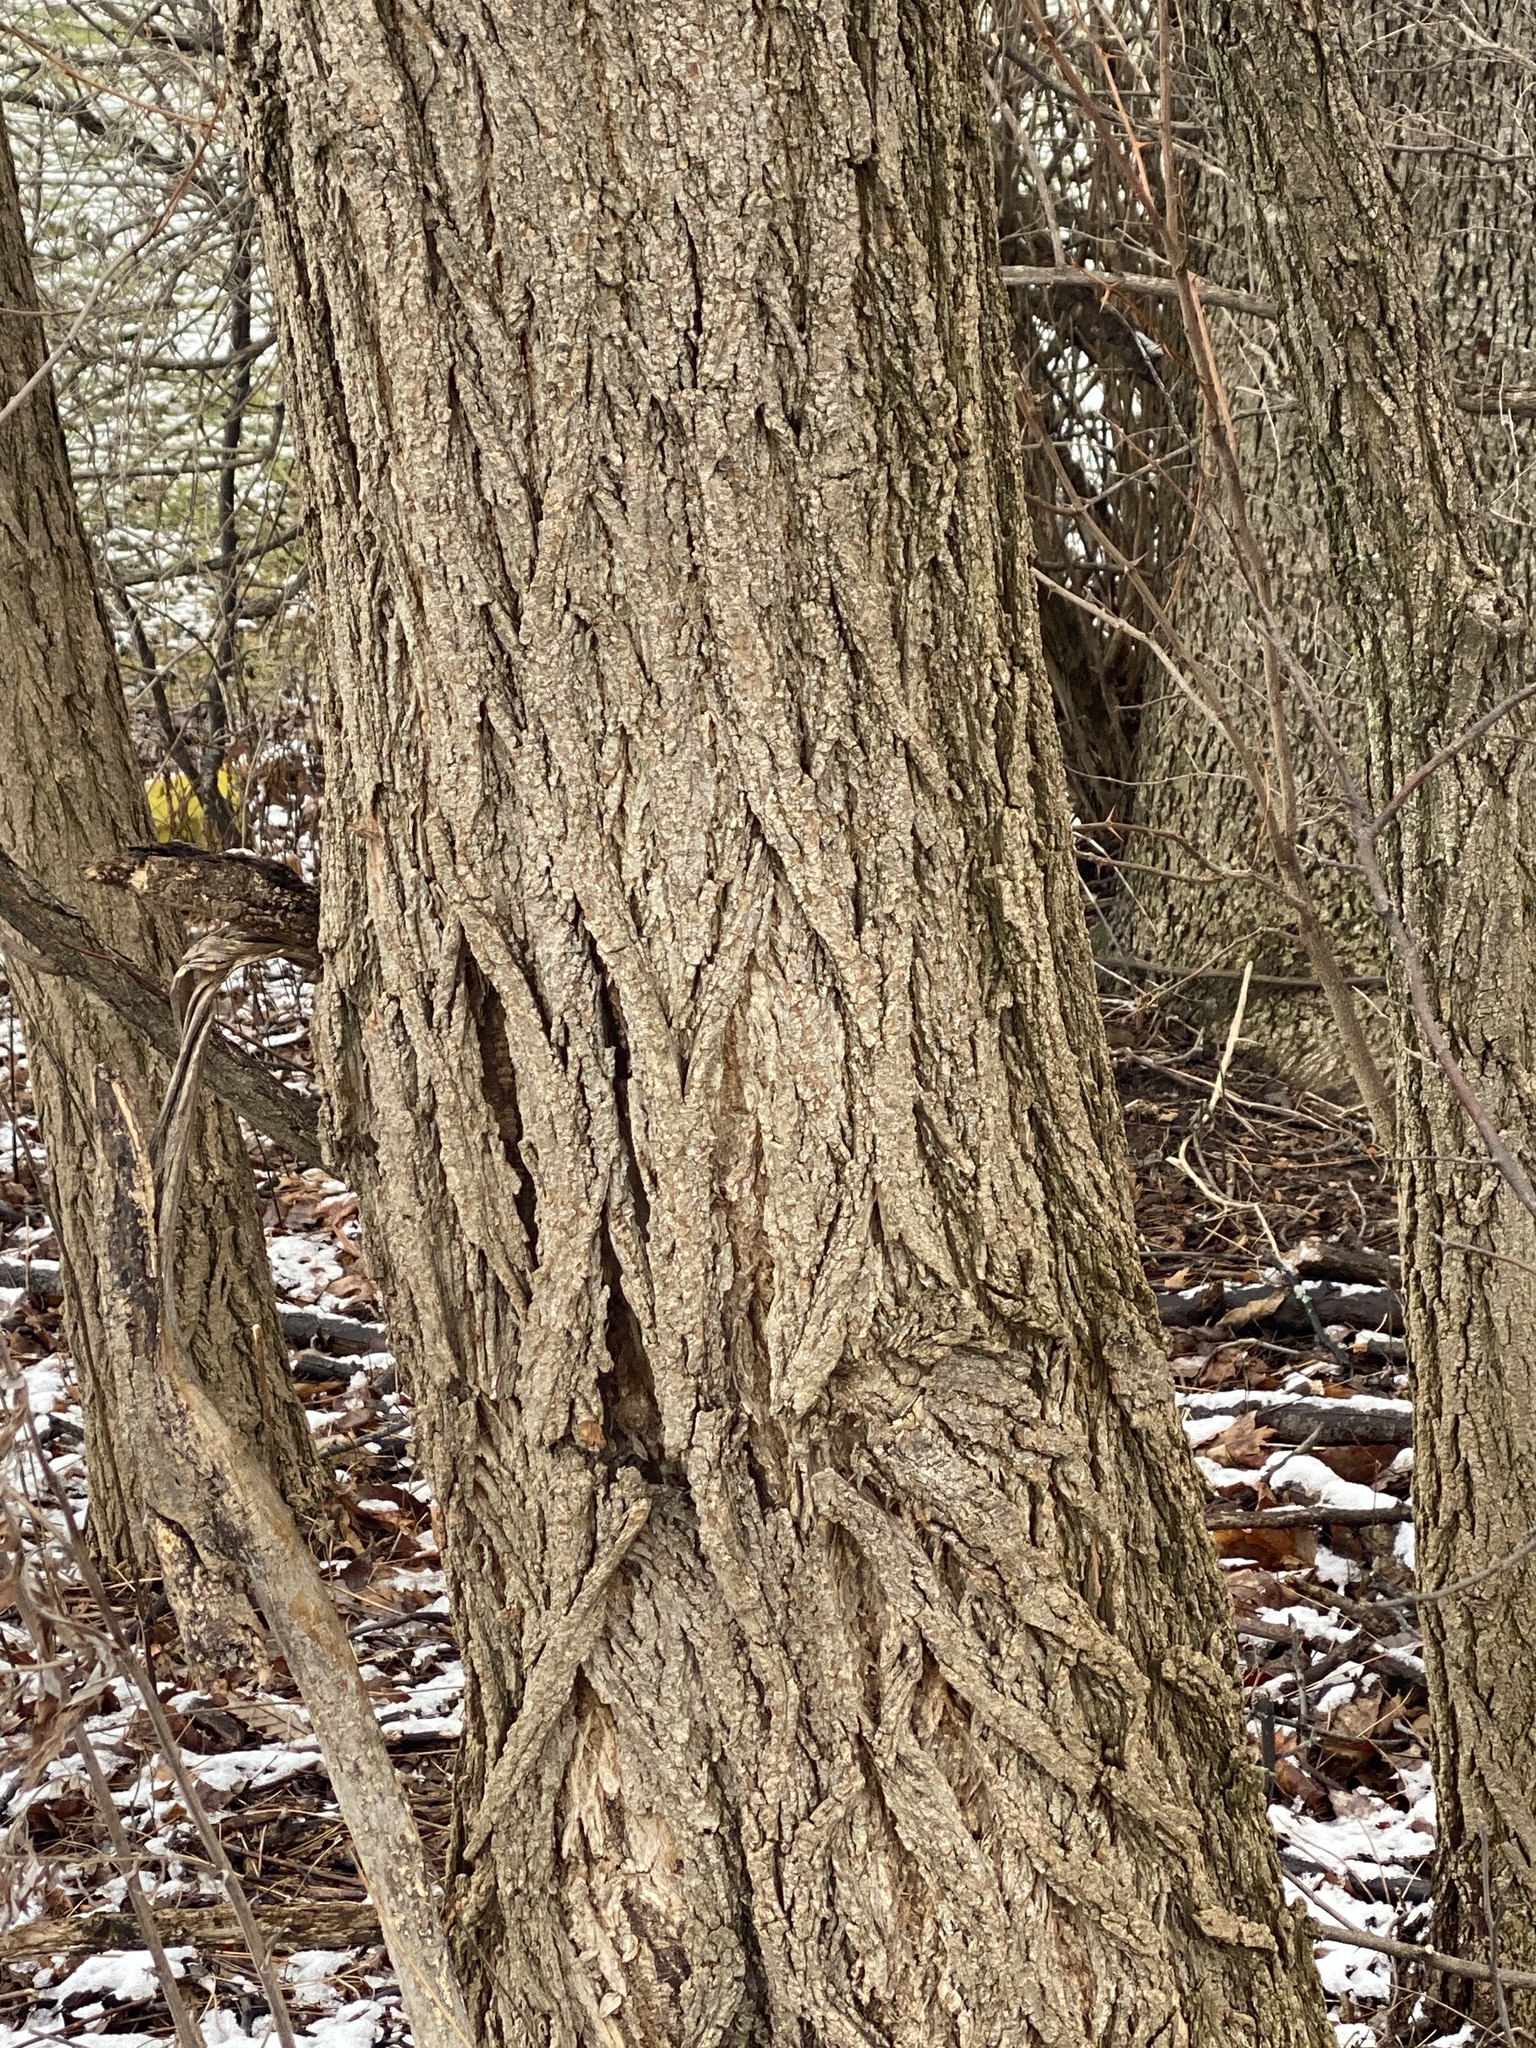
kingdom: Plantae
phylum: Tracheophyta
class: Magnoliopsida
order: Fabales
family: Fabaceae
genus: Robinia
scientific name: Robinia pseudoacacia
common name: Black locust
